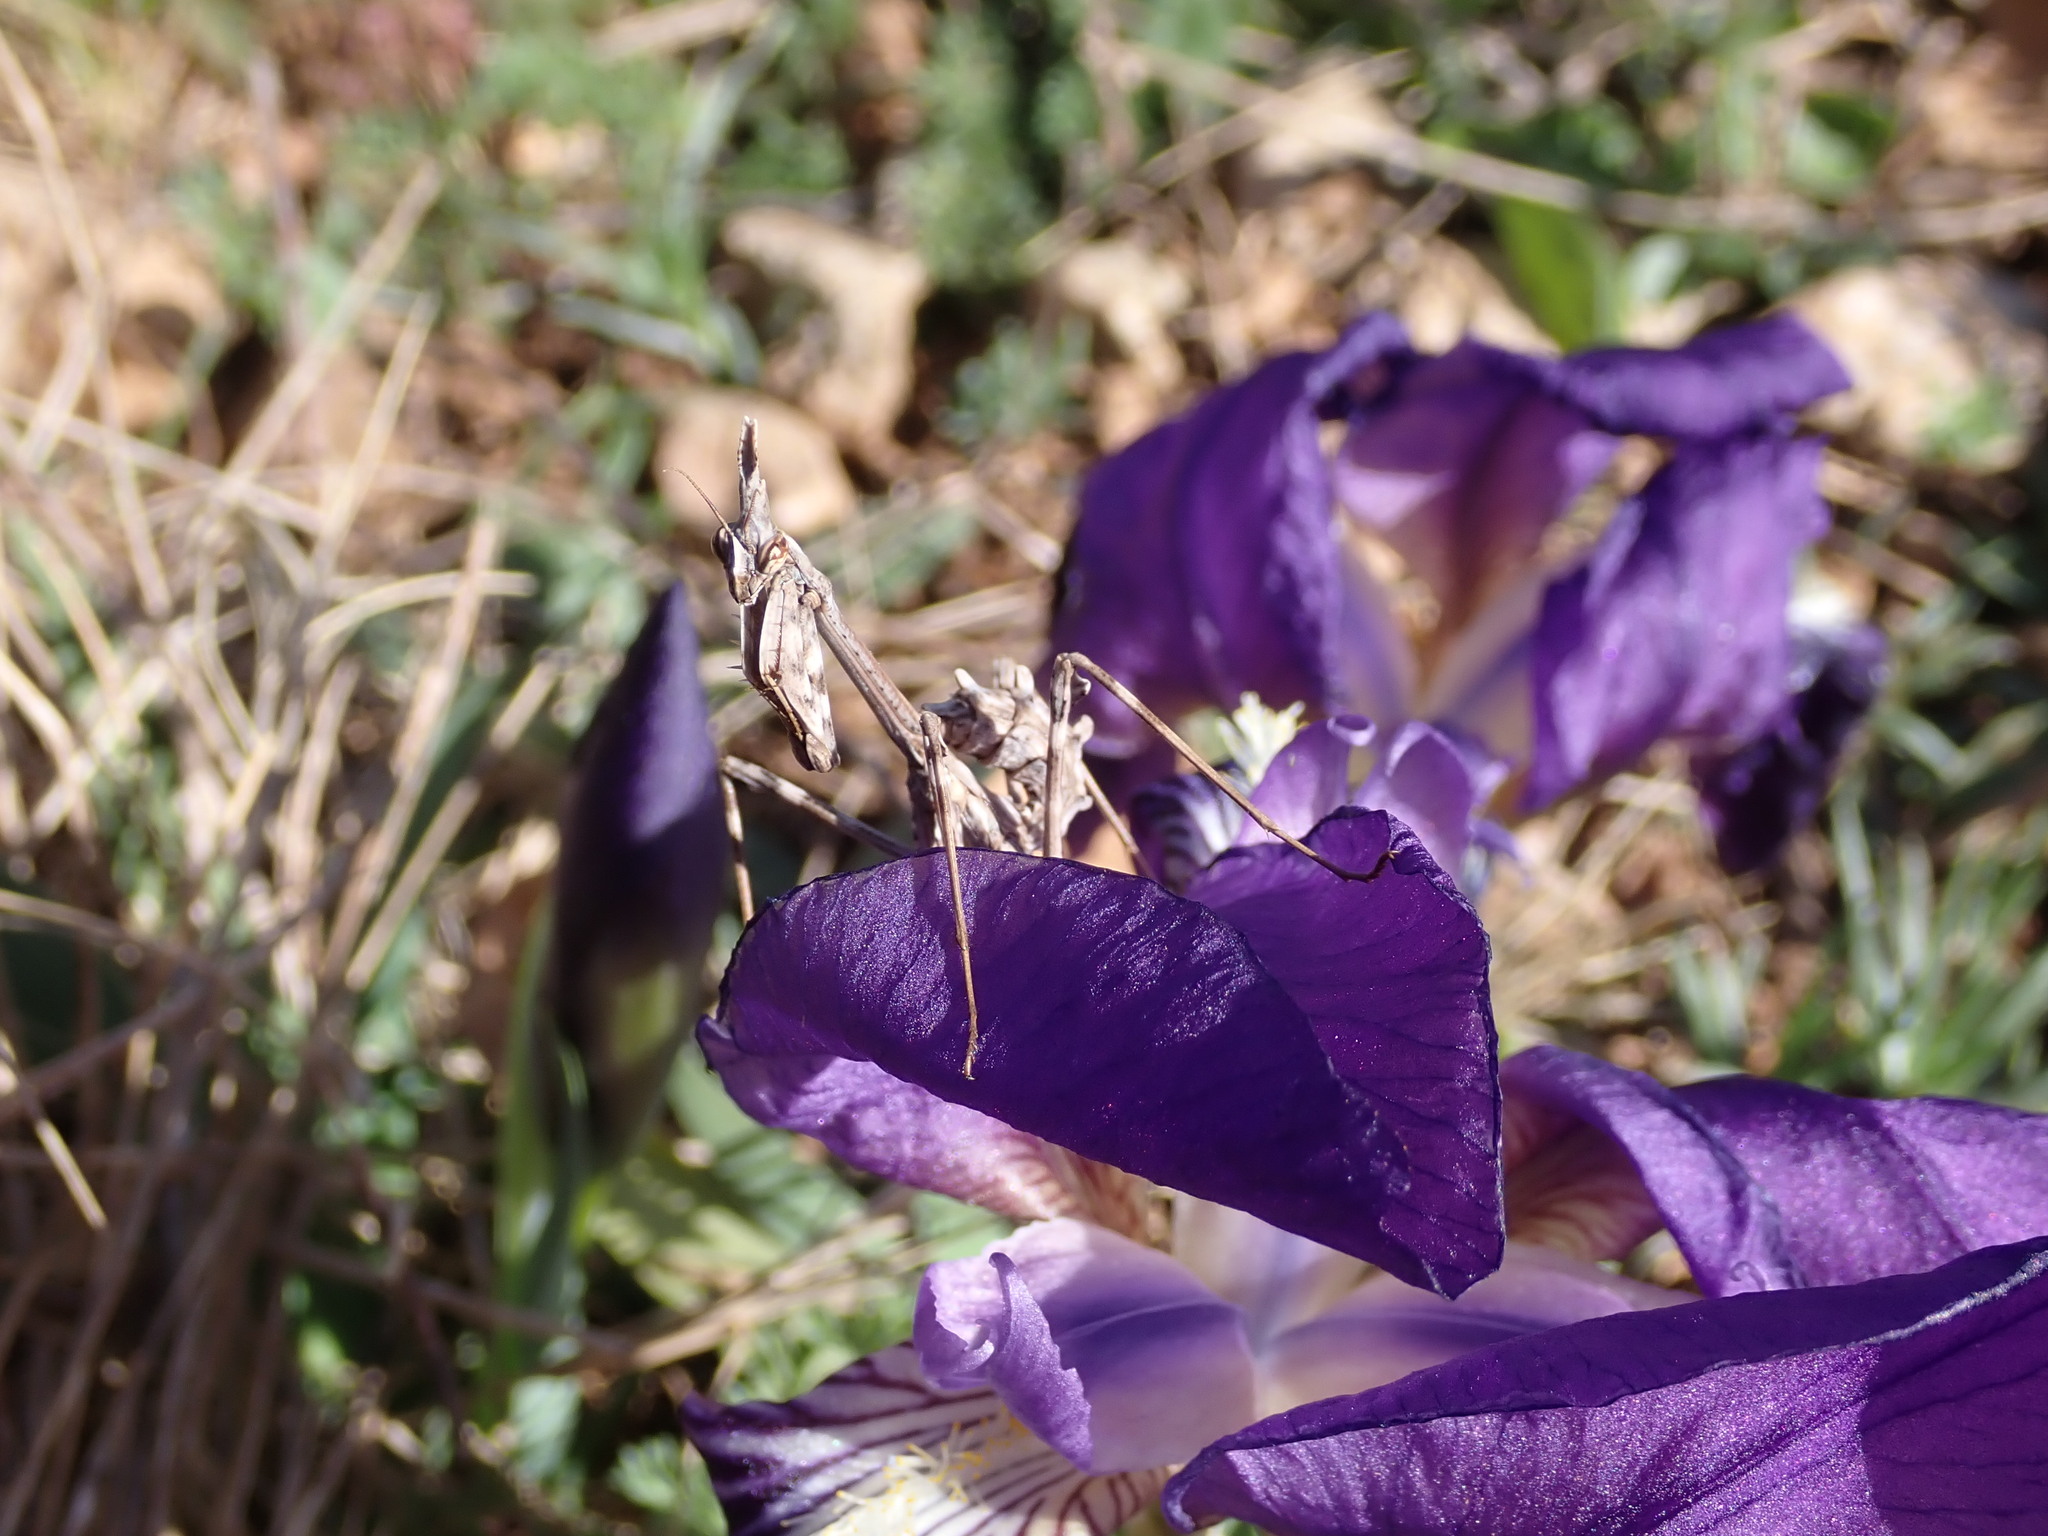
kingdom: Animalia
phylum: Arthropoda
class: Insecta
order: Mantodea
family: Empusidae
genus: Empusa
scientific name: Empusa pennata
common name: Conehead mantis
